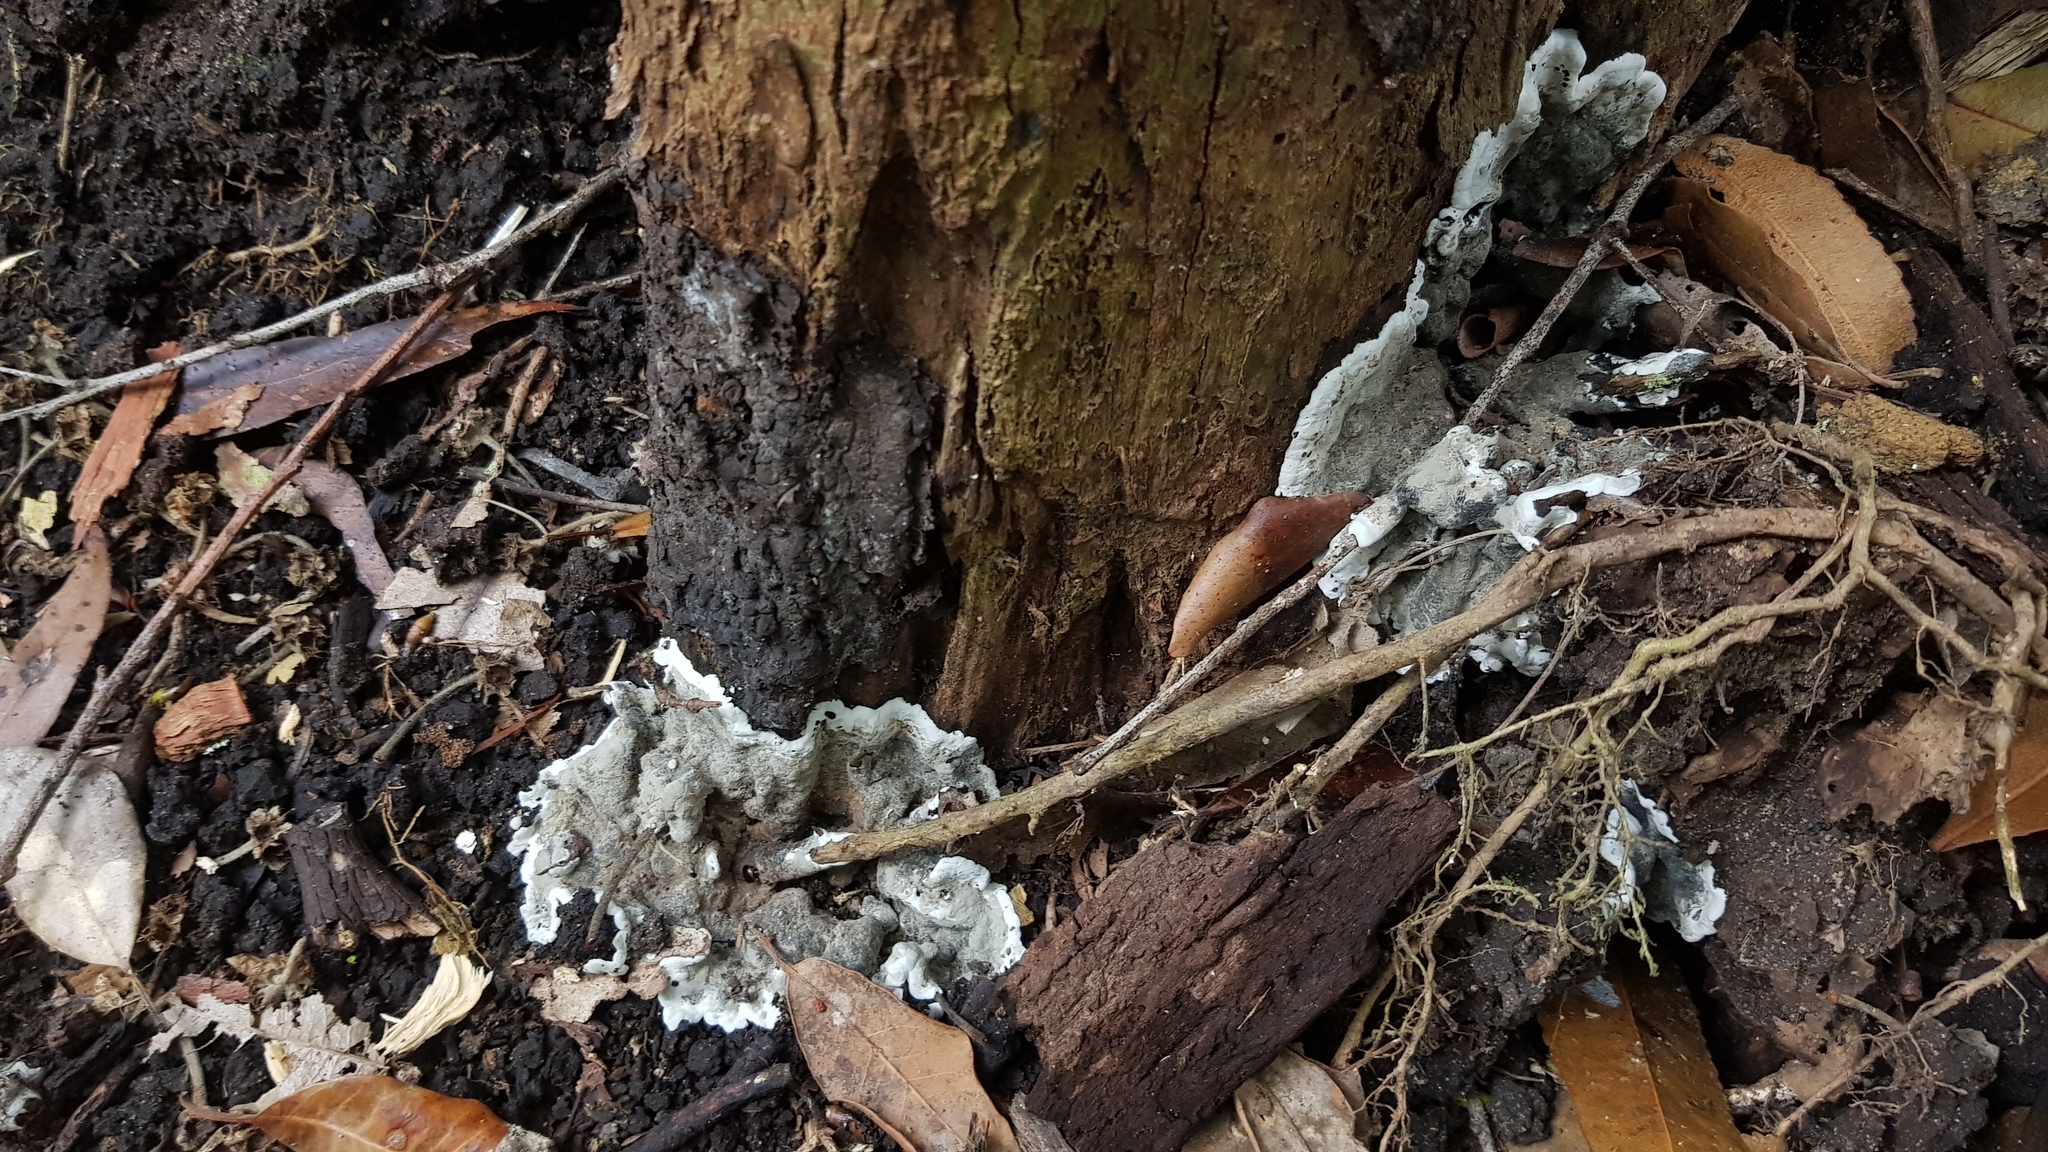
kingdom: Fungi
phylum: Ascomycota
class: Sordariomycetes
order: Xylariales
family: Xylariaceae
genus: Kretzschmaria
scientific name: Kretzschmaria deusta
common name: Brittle cinder
